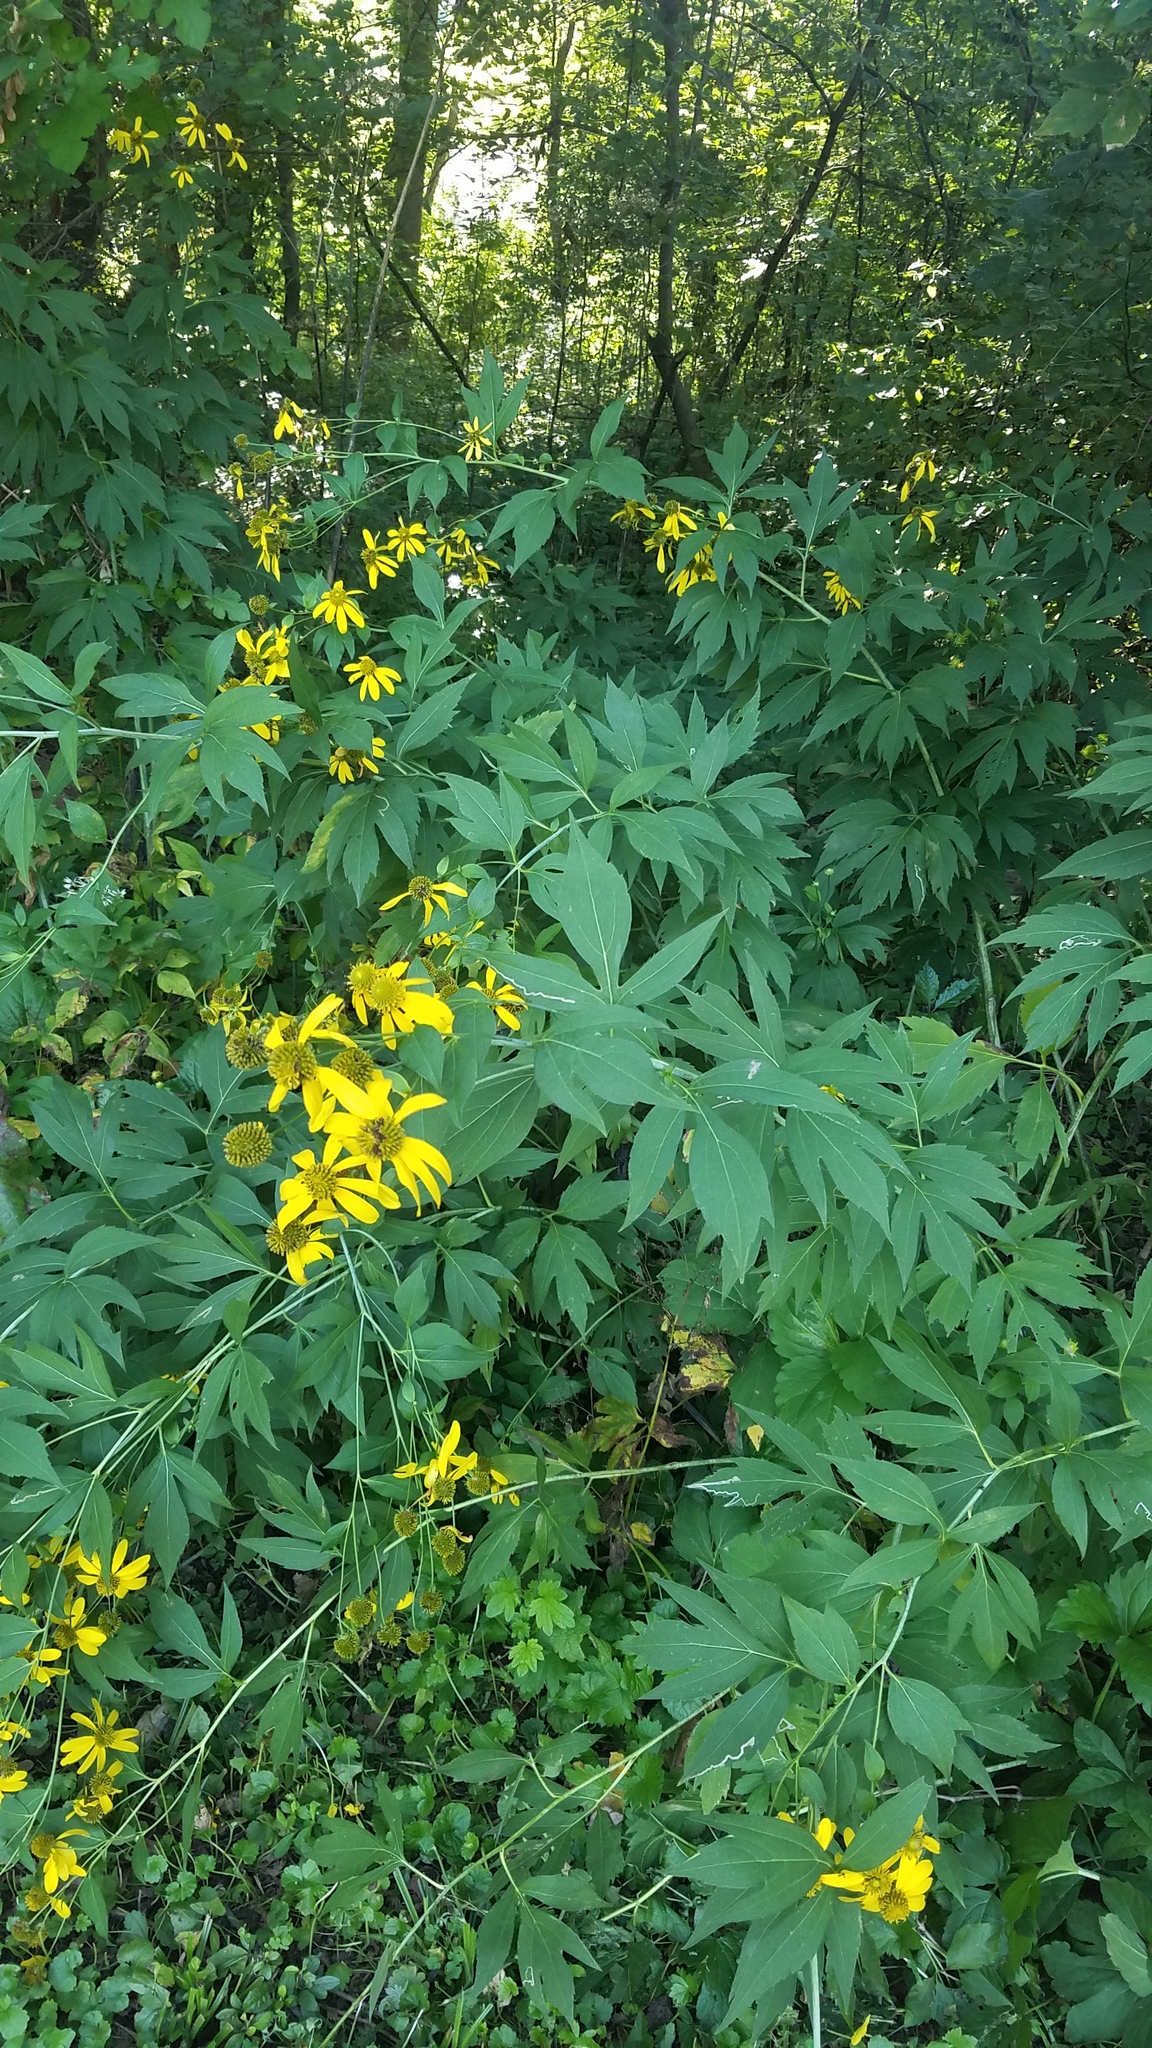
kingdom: Plantae
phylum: Tracheophyta
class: Magnoliopsida
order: Asterales
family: Asteraceae
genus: Rudbeckia
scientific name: Rudbeckia laciniata
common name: Coneflower
